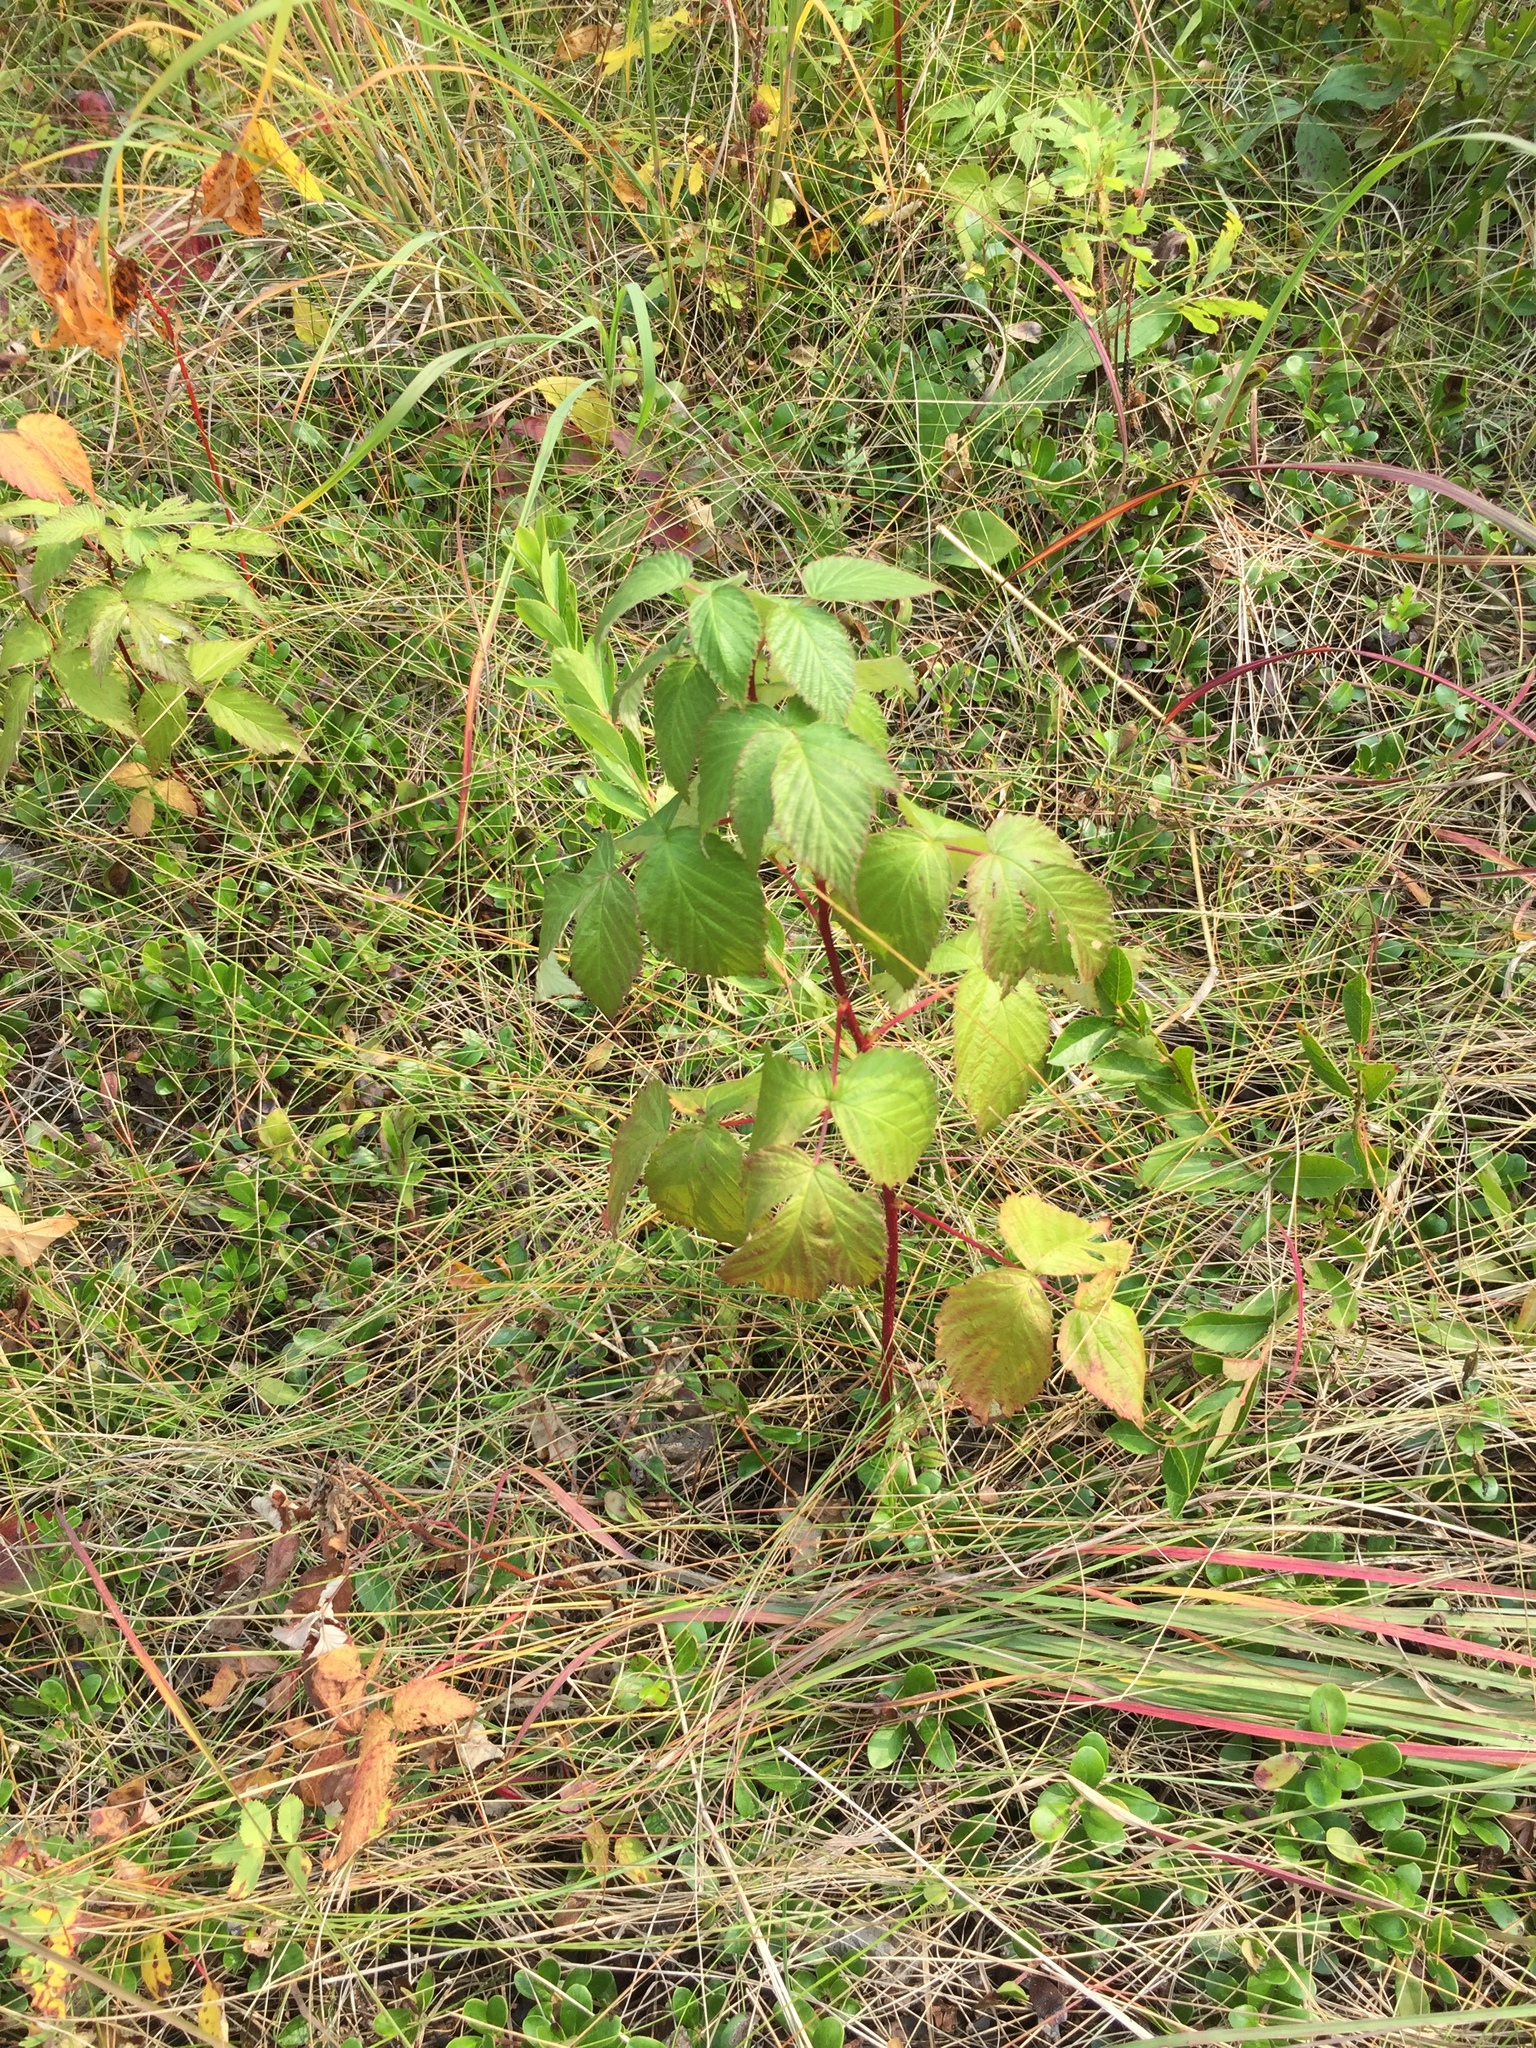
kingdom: Plantae
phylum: Tracheophyta
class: Magnoliopsida
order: Rosales
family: Rosaceae
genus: Rubus
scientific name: Rubus idaeus
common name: Raspberry
